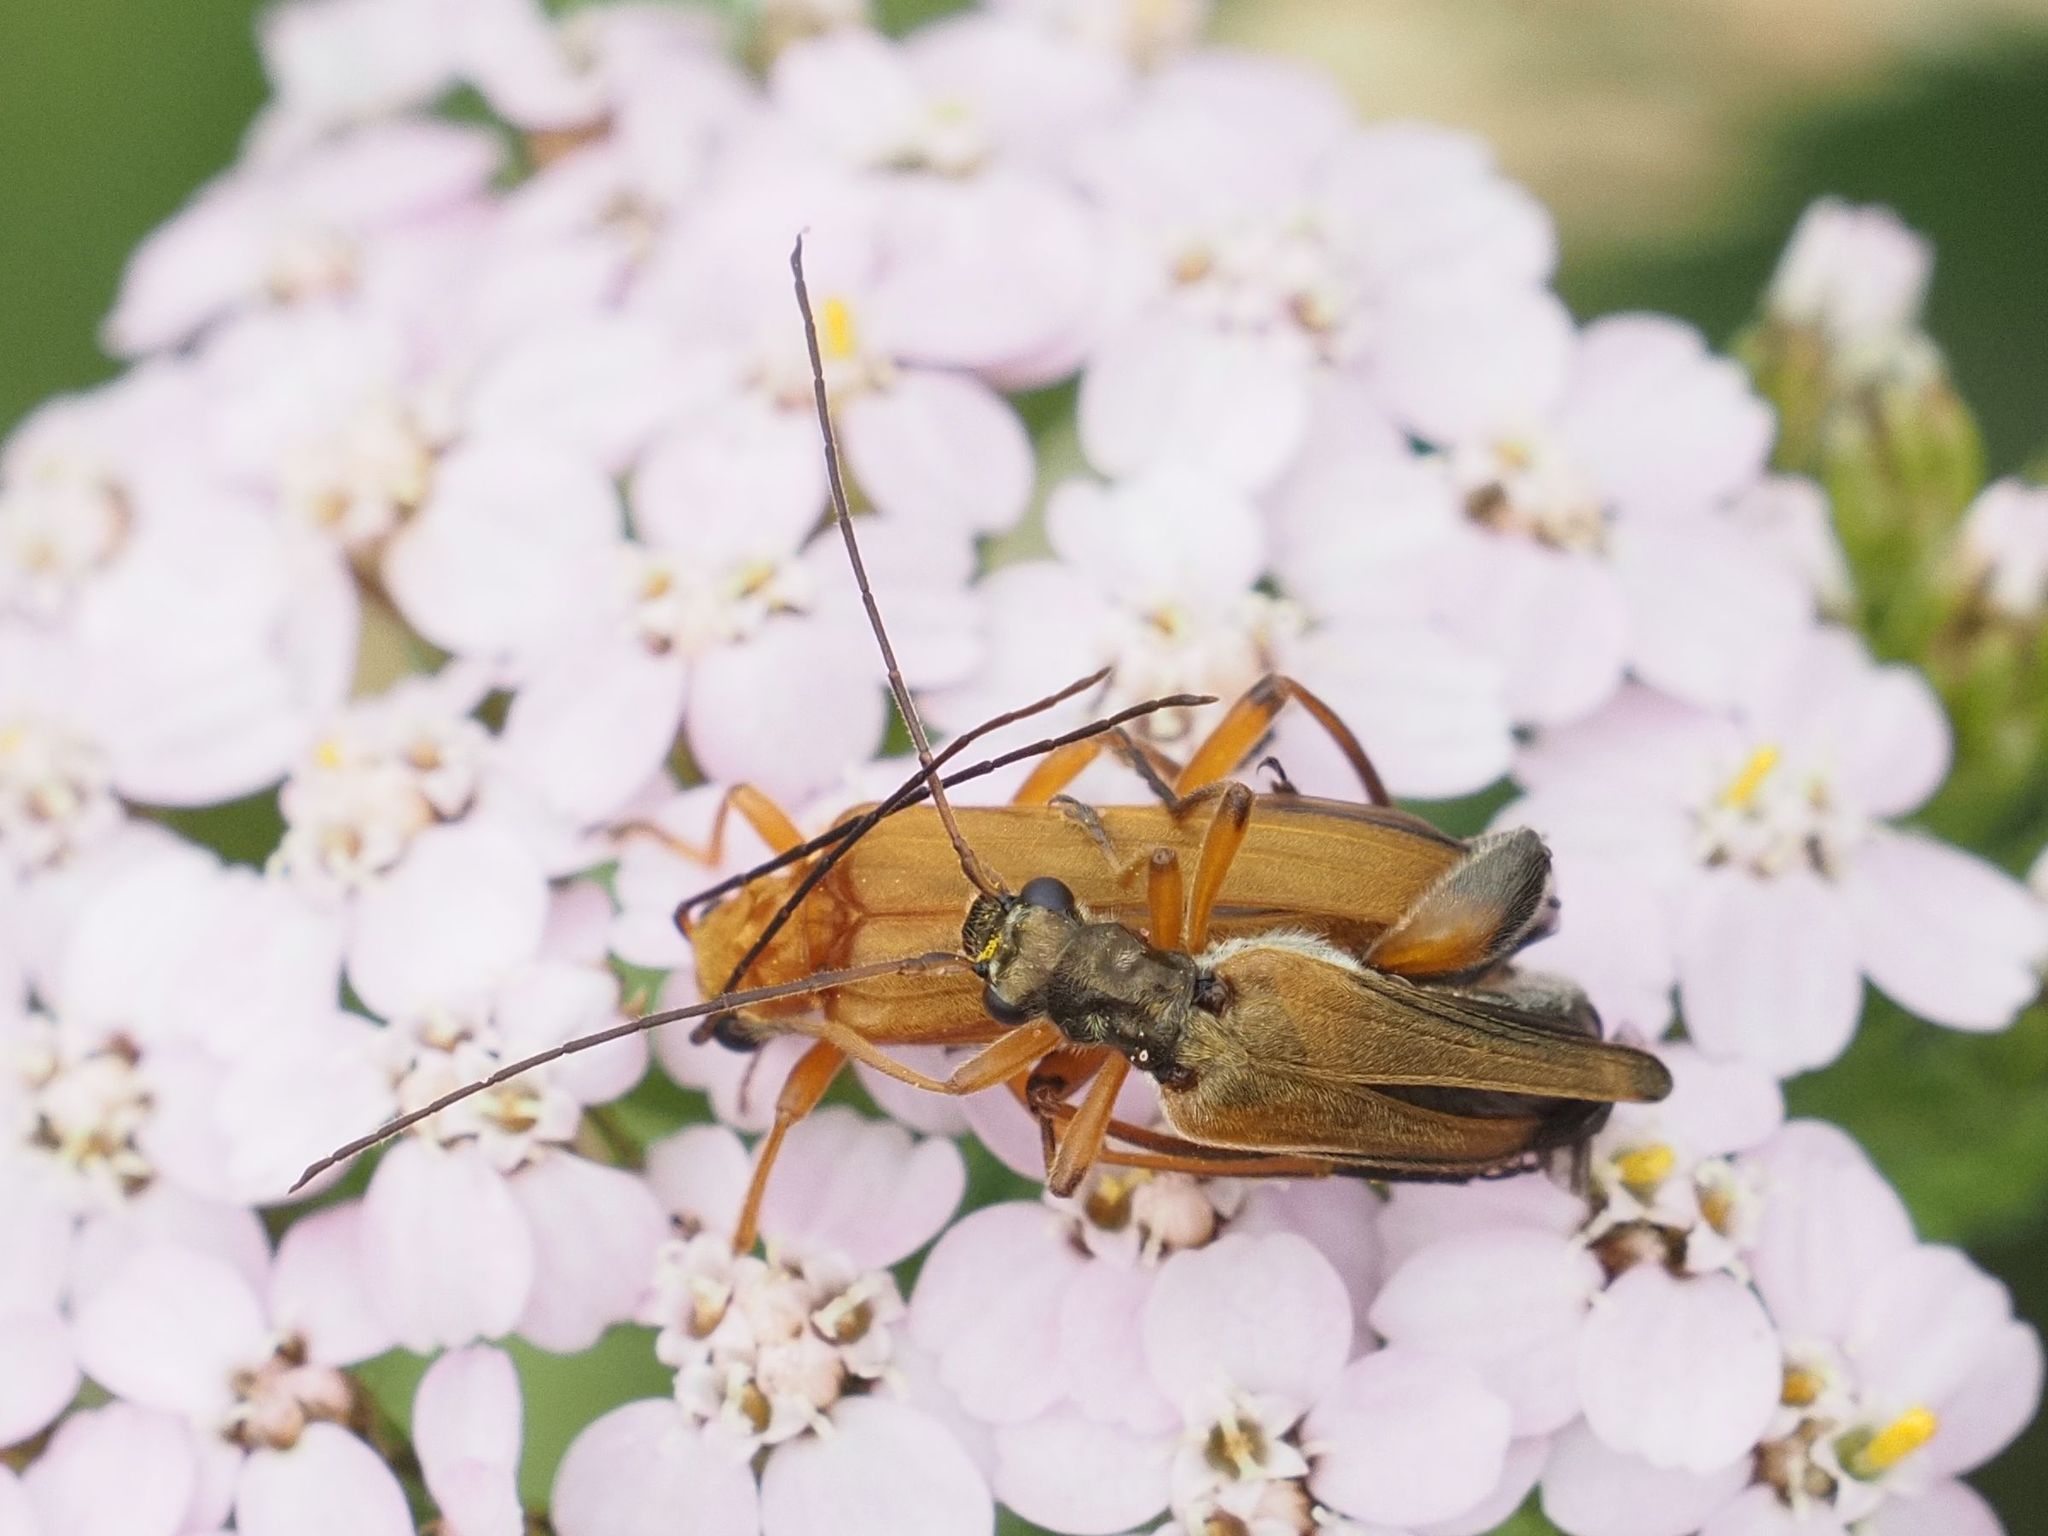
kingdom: Animalia
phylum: Arthropoda
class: Insecta
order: Coleoptera
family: Oedemeridae
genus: Oedemera
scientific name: Oedemera podagrariae
